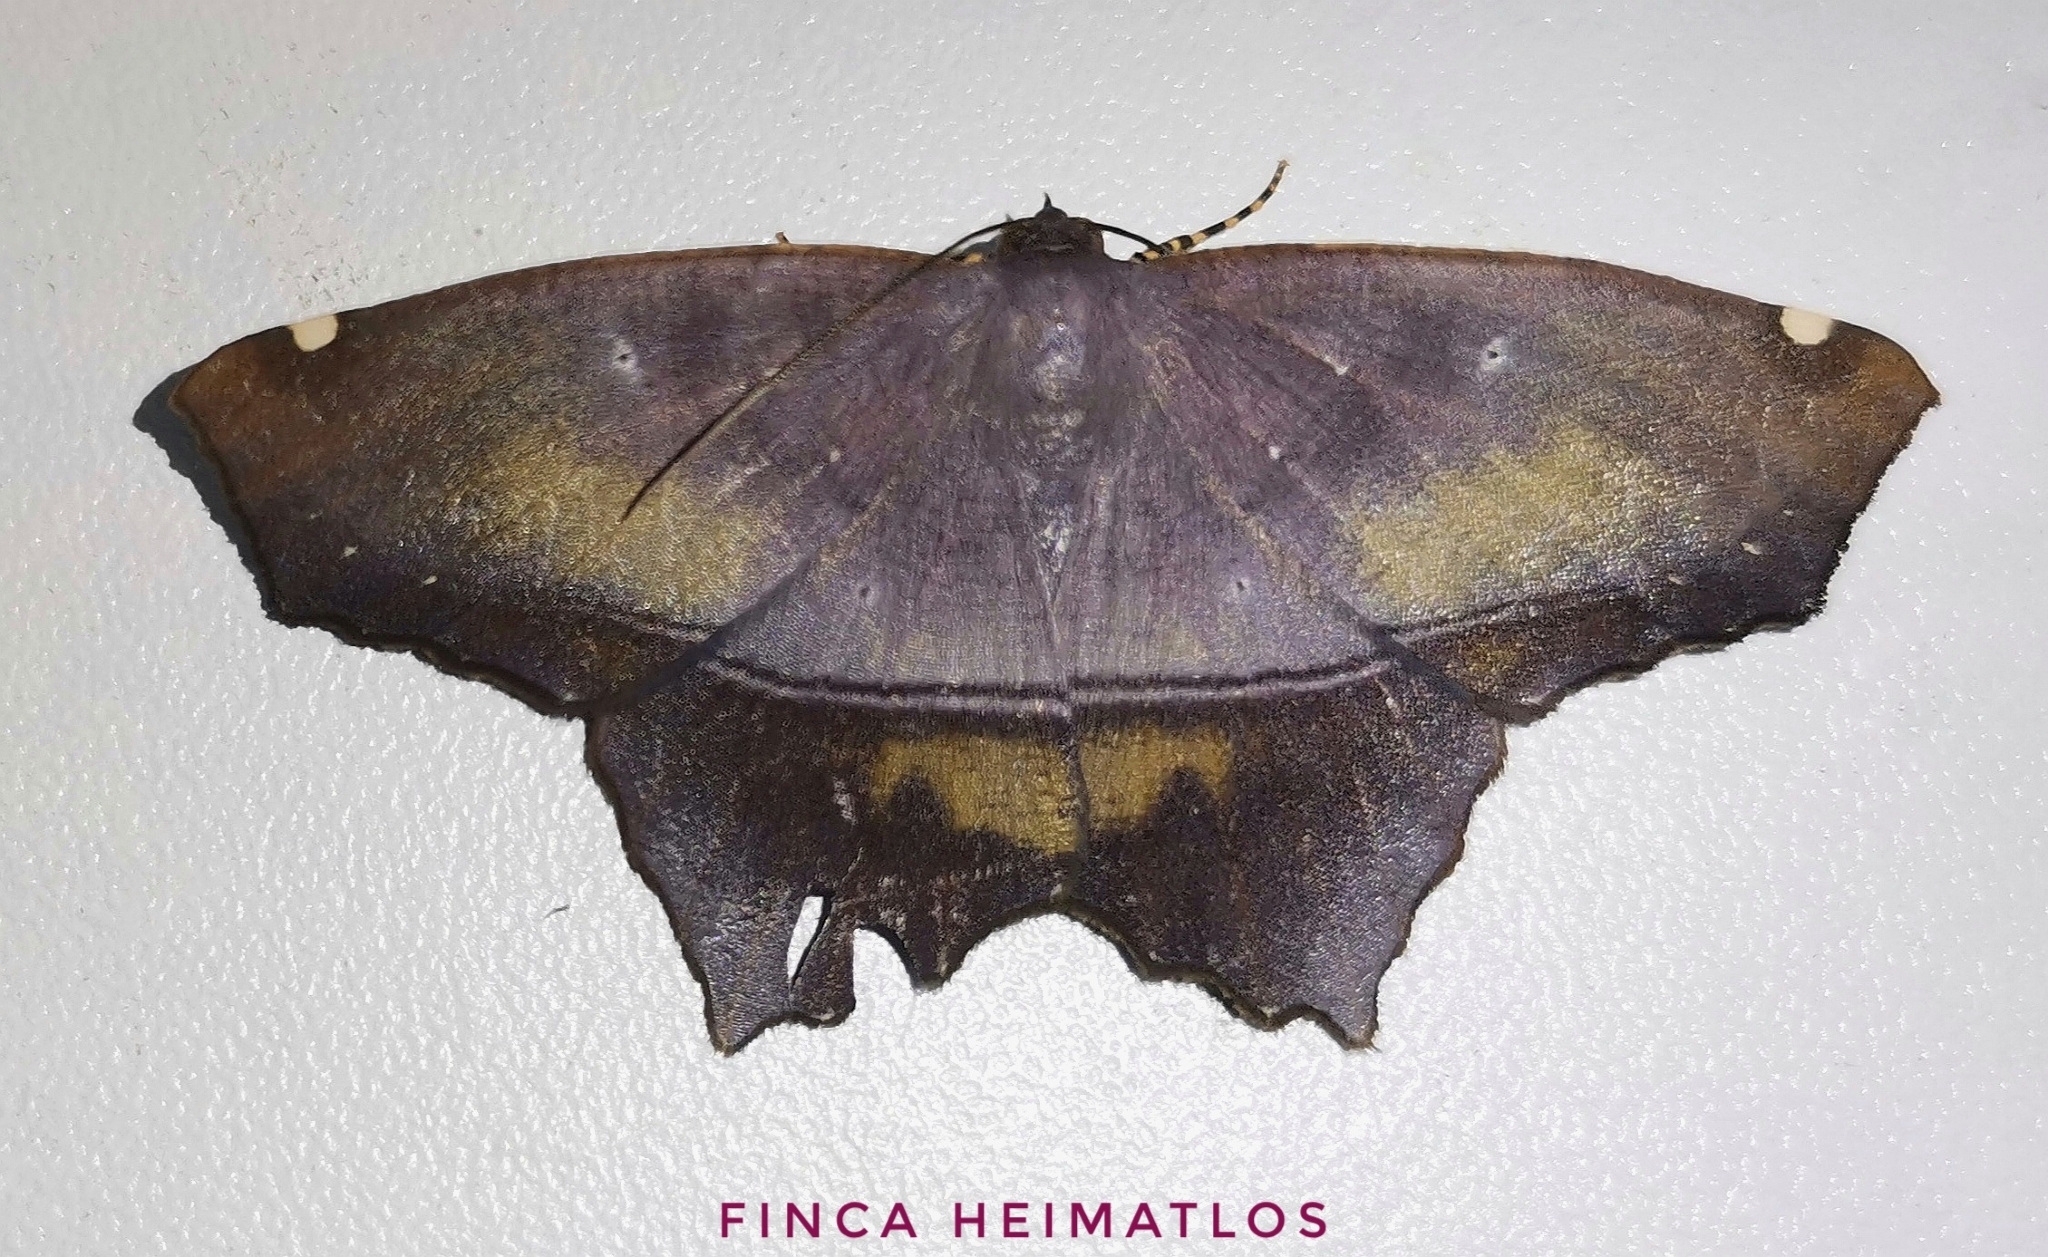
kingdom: Animalia
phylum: Arthropoda
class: Insecta
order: Lepidoptera
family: Geometridae
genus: Trotopera
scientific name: Trotopera olivifera
